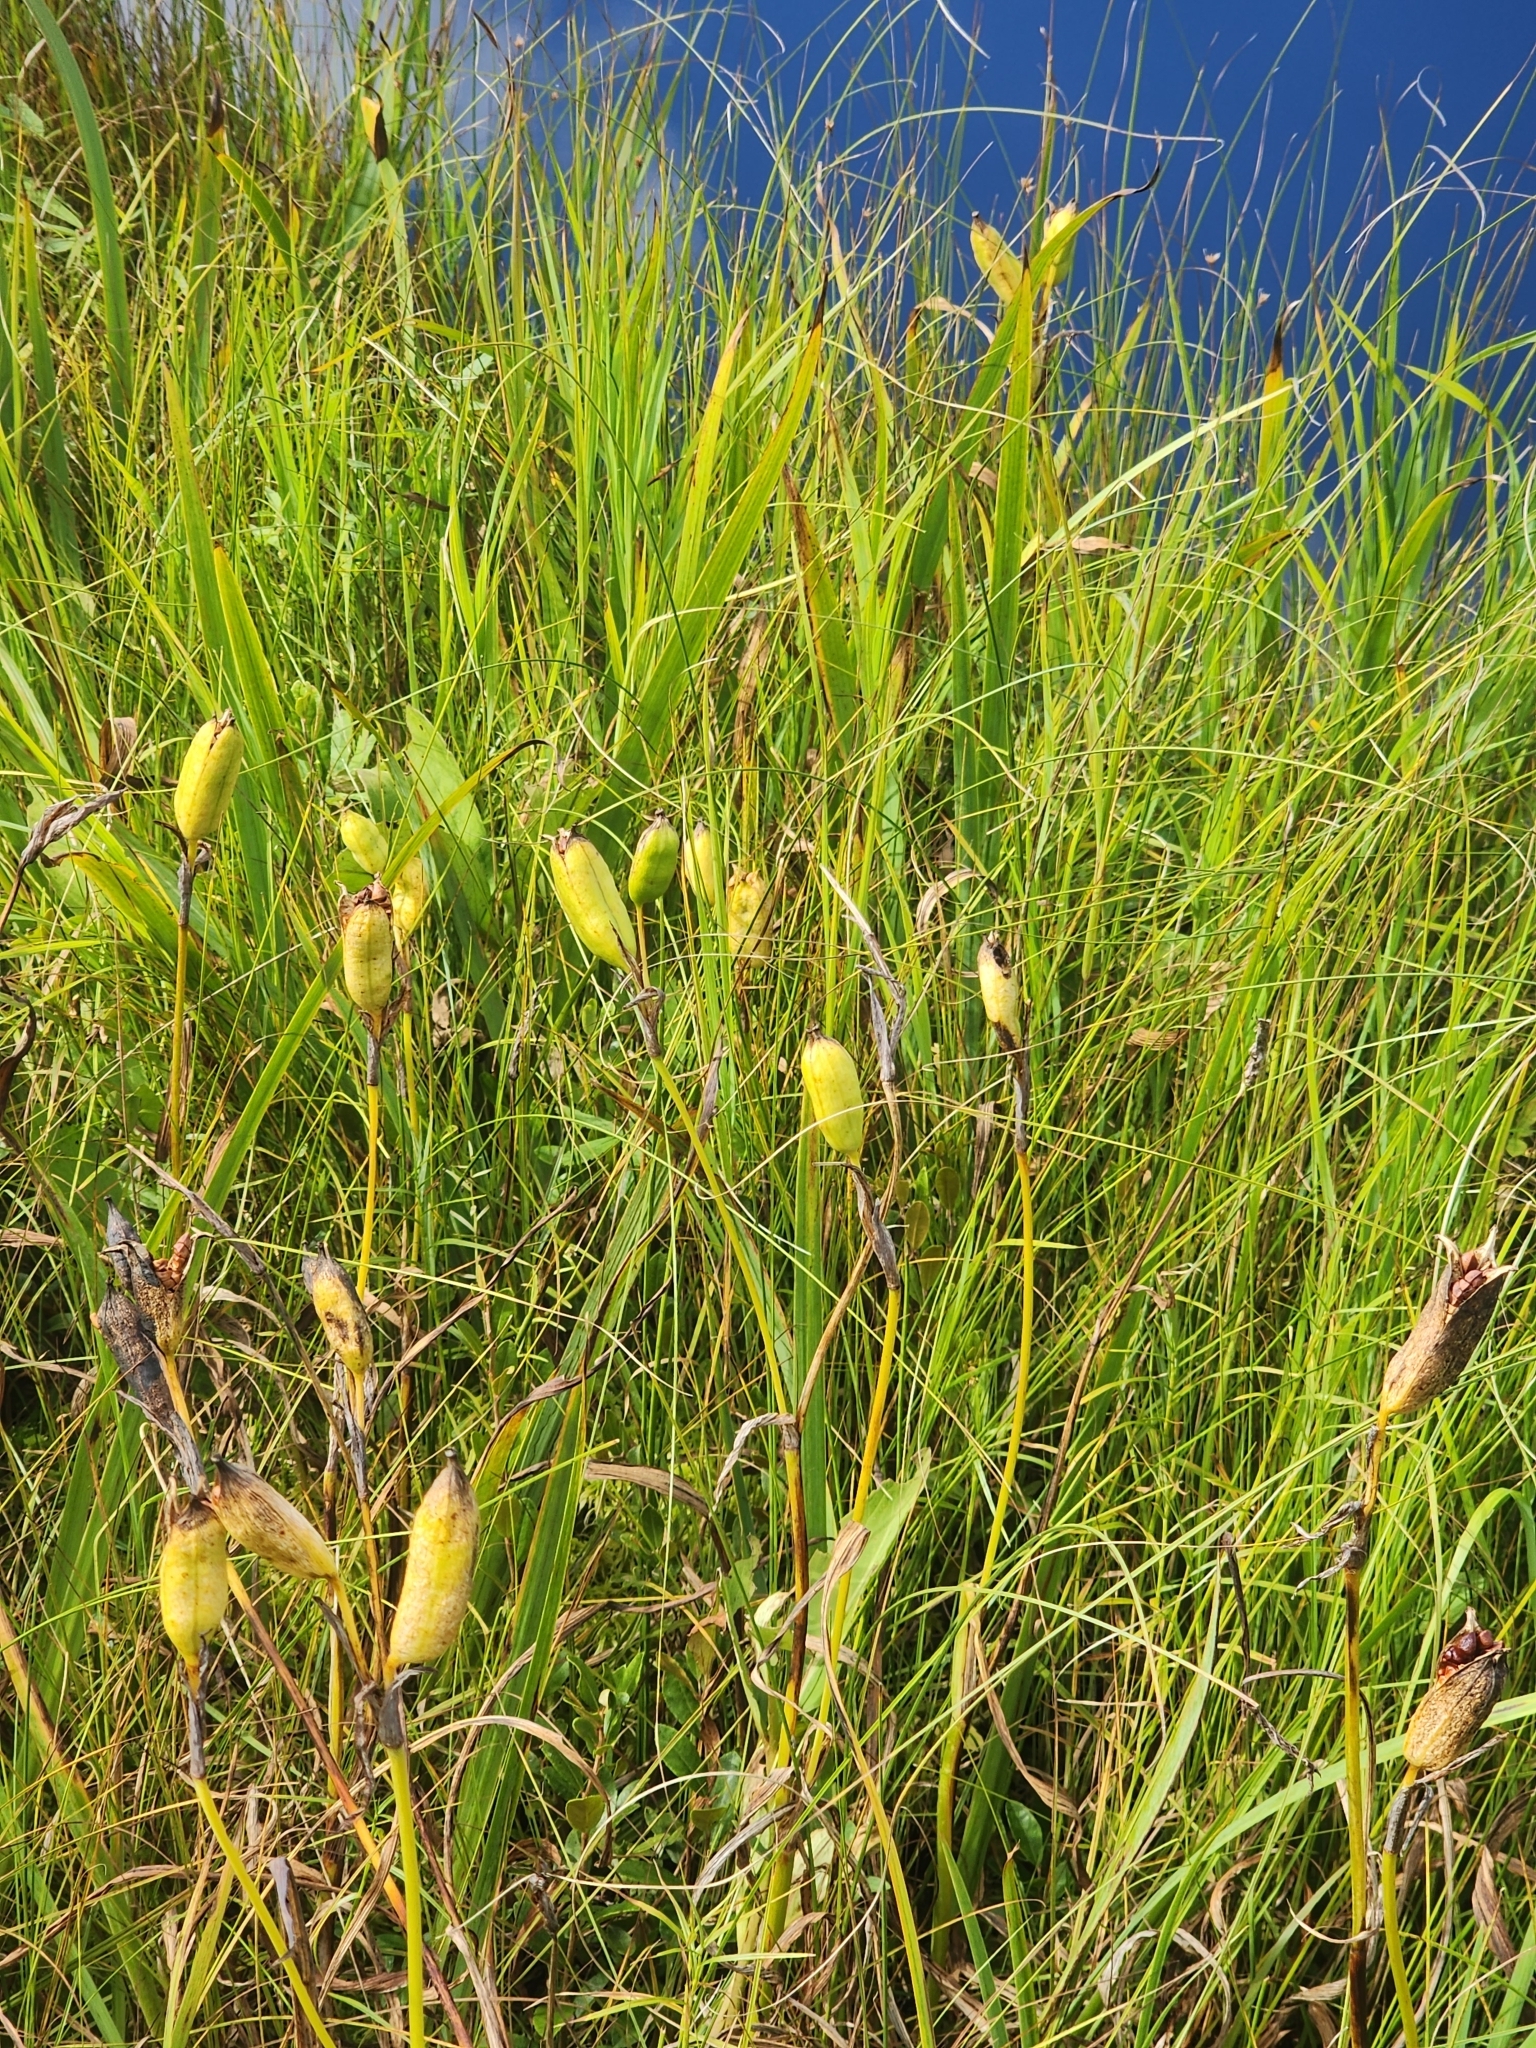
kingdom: Plantae
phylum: Tracheophyta
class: Liliopsida
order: Asparagales
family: Iridaceae
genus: Iris
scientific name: Iris versicolor
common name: Purple iris
